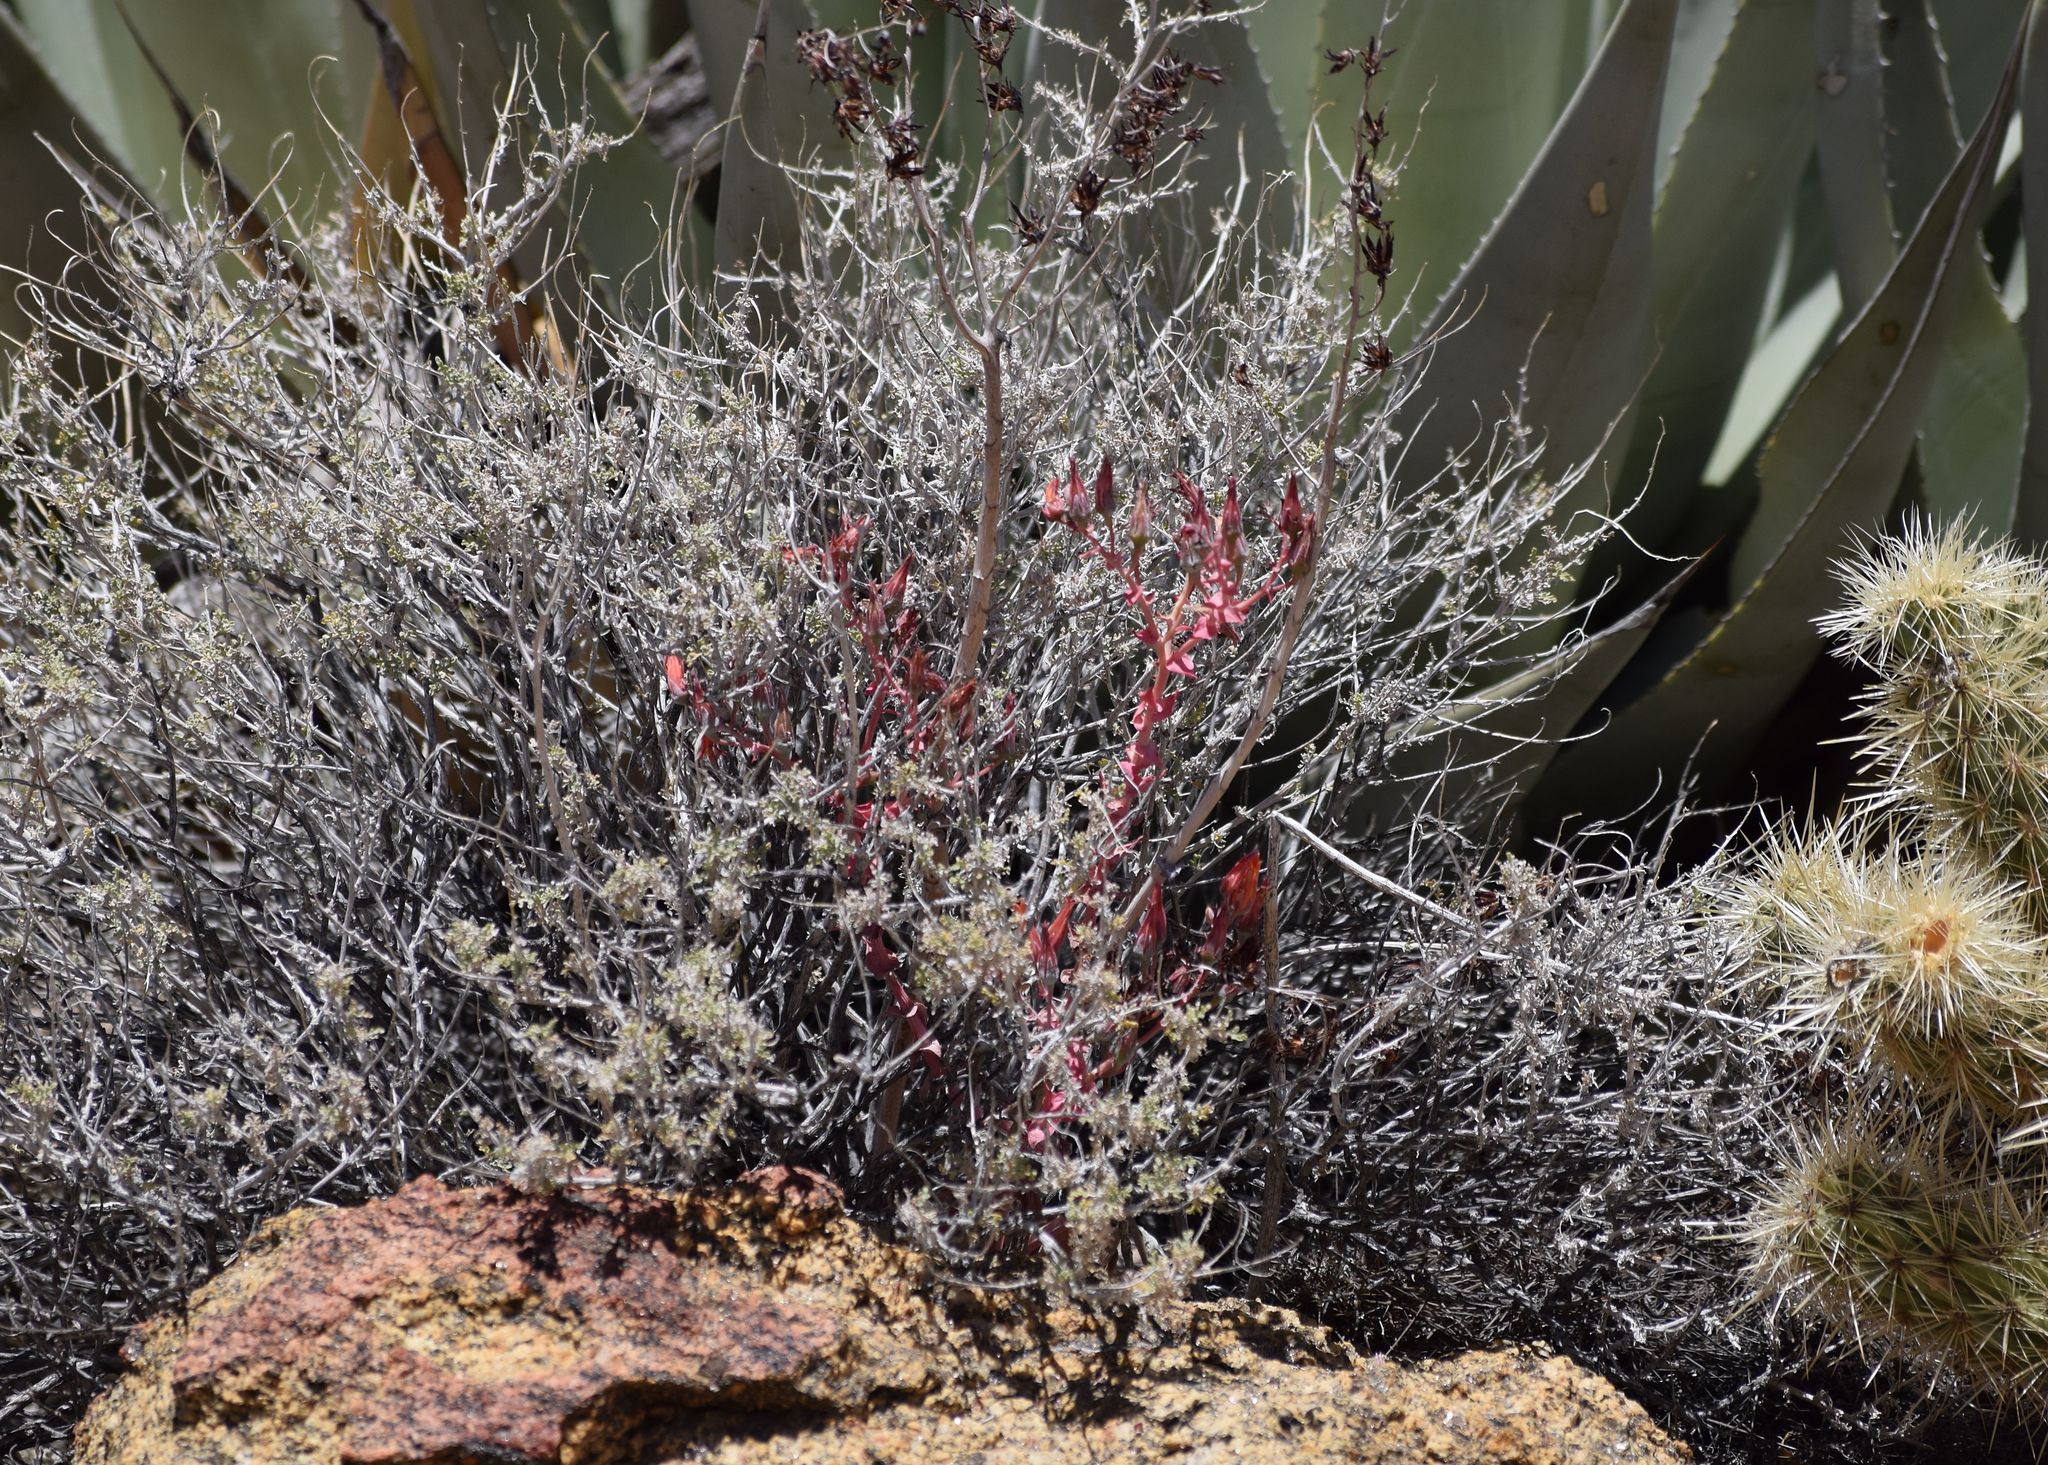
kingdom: Plantae
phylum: Tracheophyta
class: Magnoliopsida
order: Saxifragales
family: Crassulaceae
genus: Dudleya
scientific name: Dudleya arizonica
